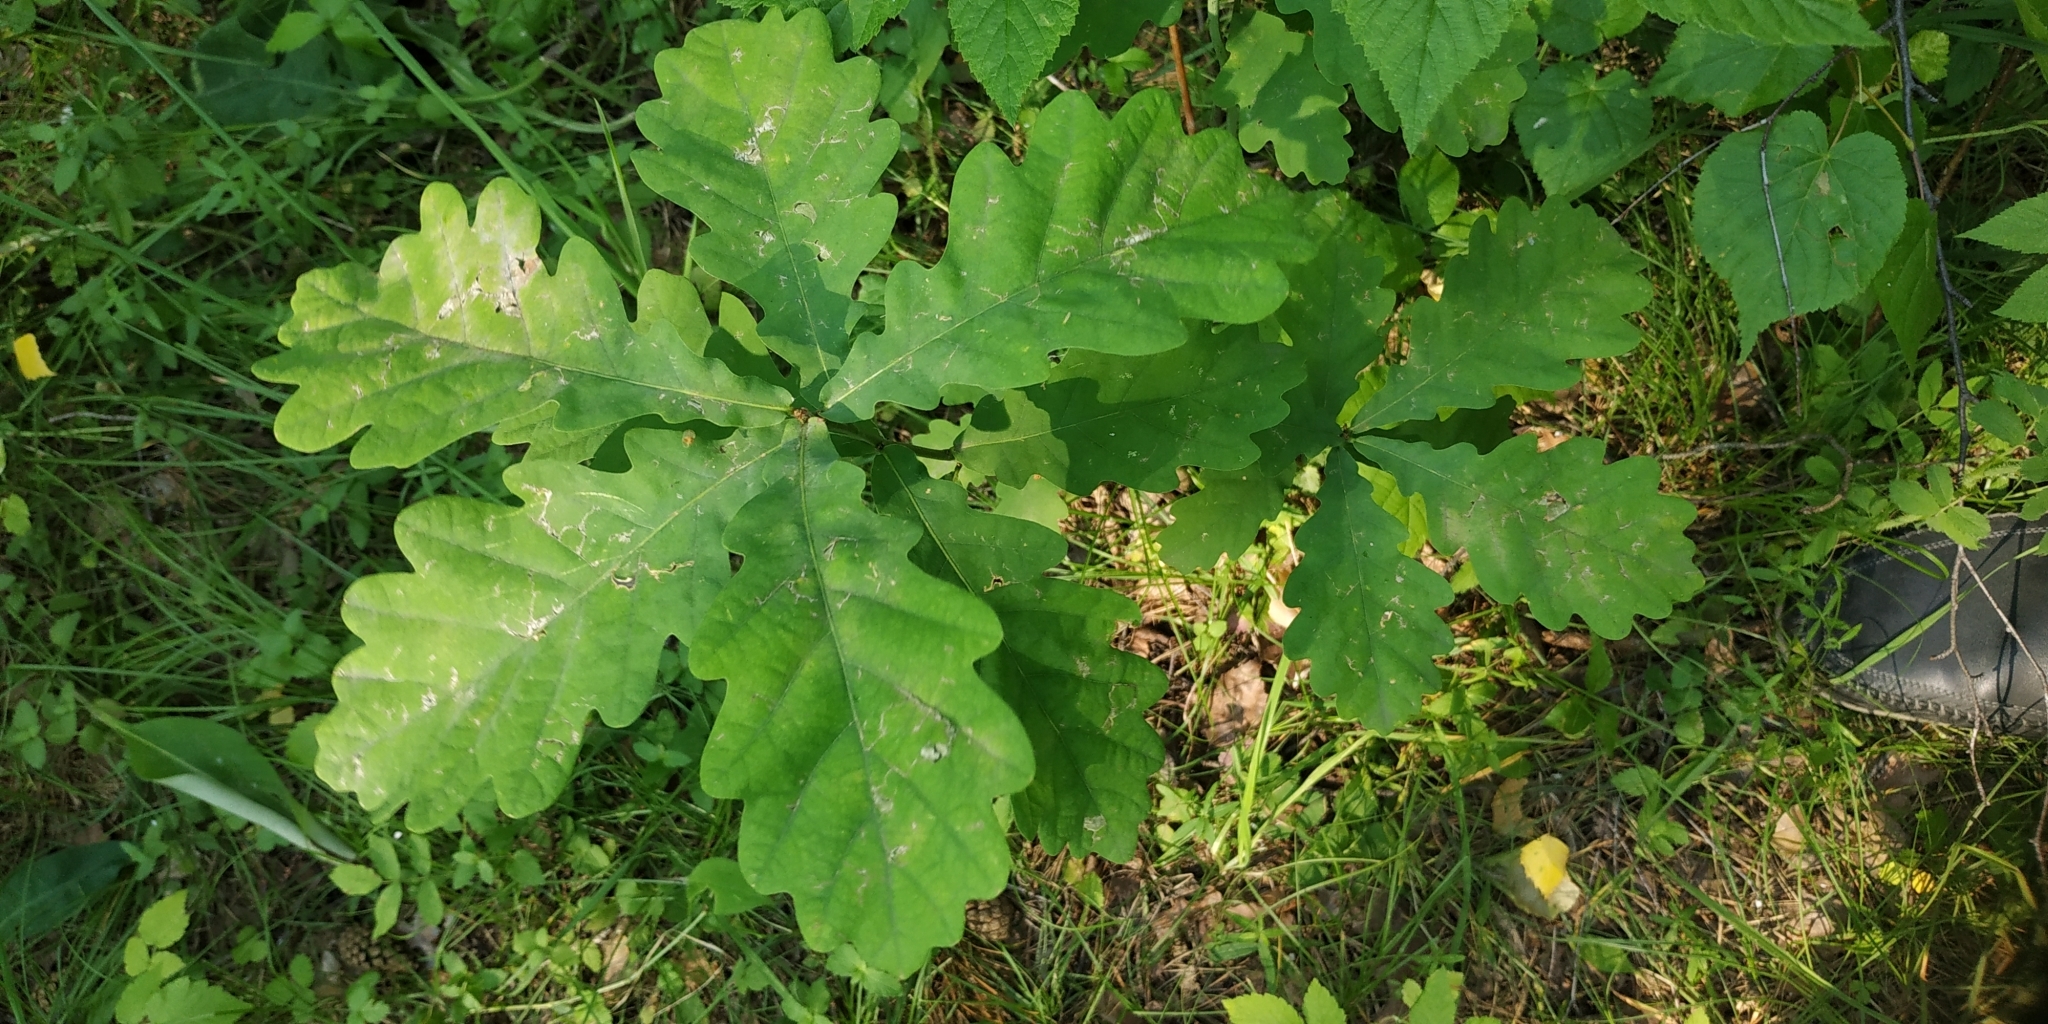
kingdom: Plantae
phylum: Tracheophyta
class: Magnoliopsida
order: Fagales
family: Fagaceae
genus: Quercus
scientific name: Quercus robur
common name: Pedunculate oak
